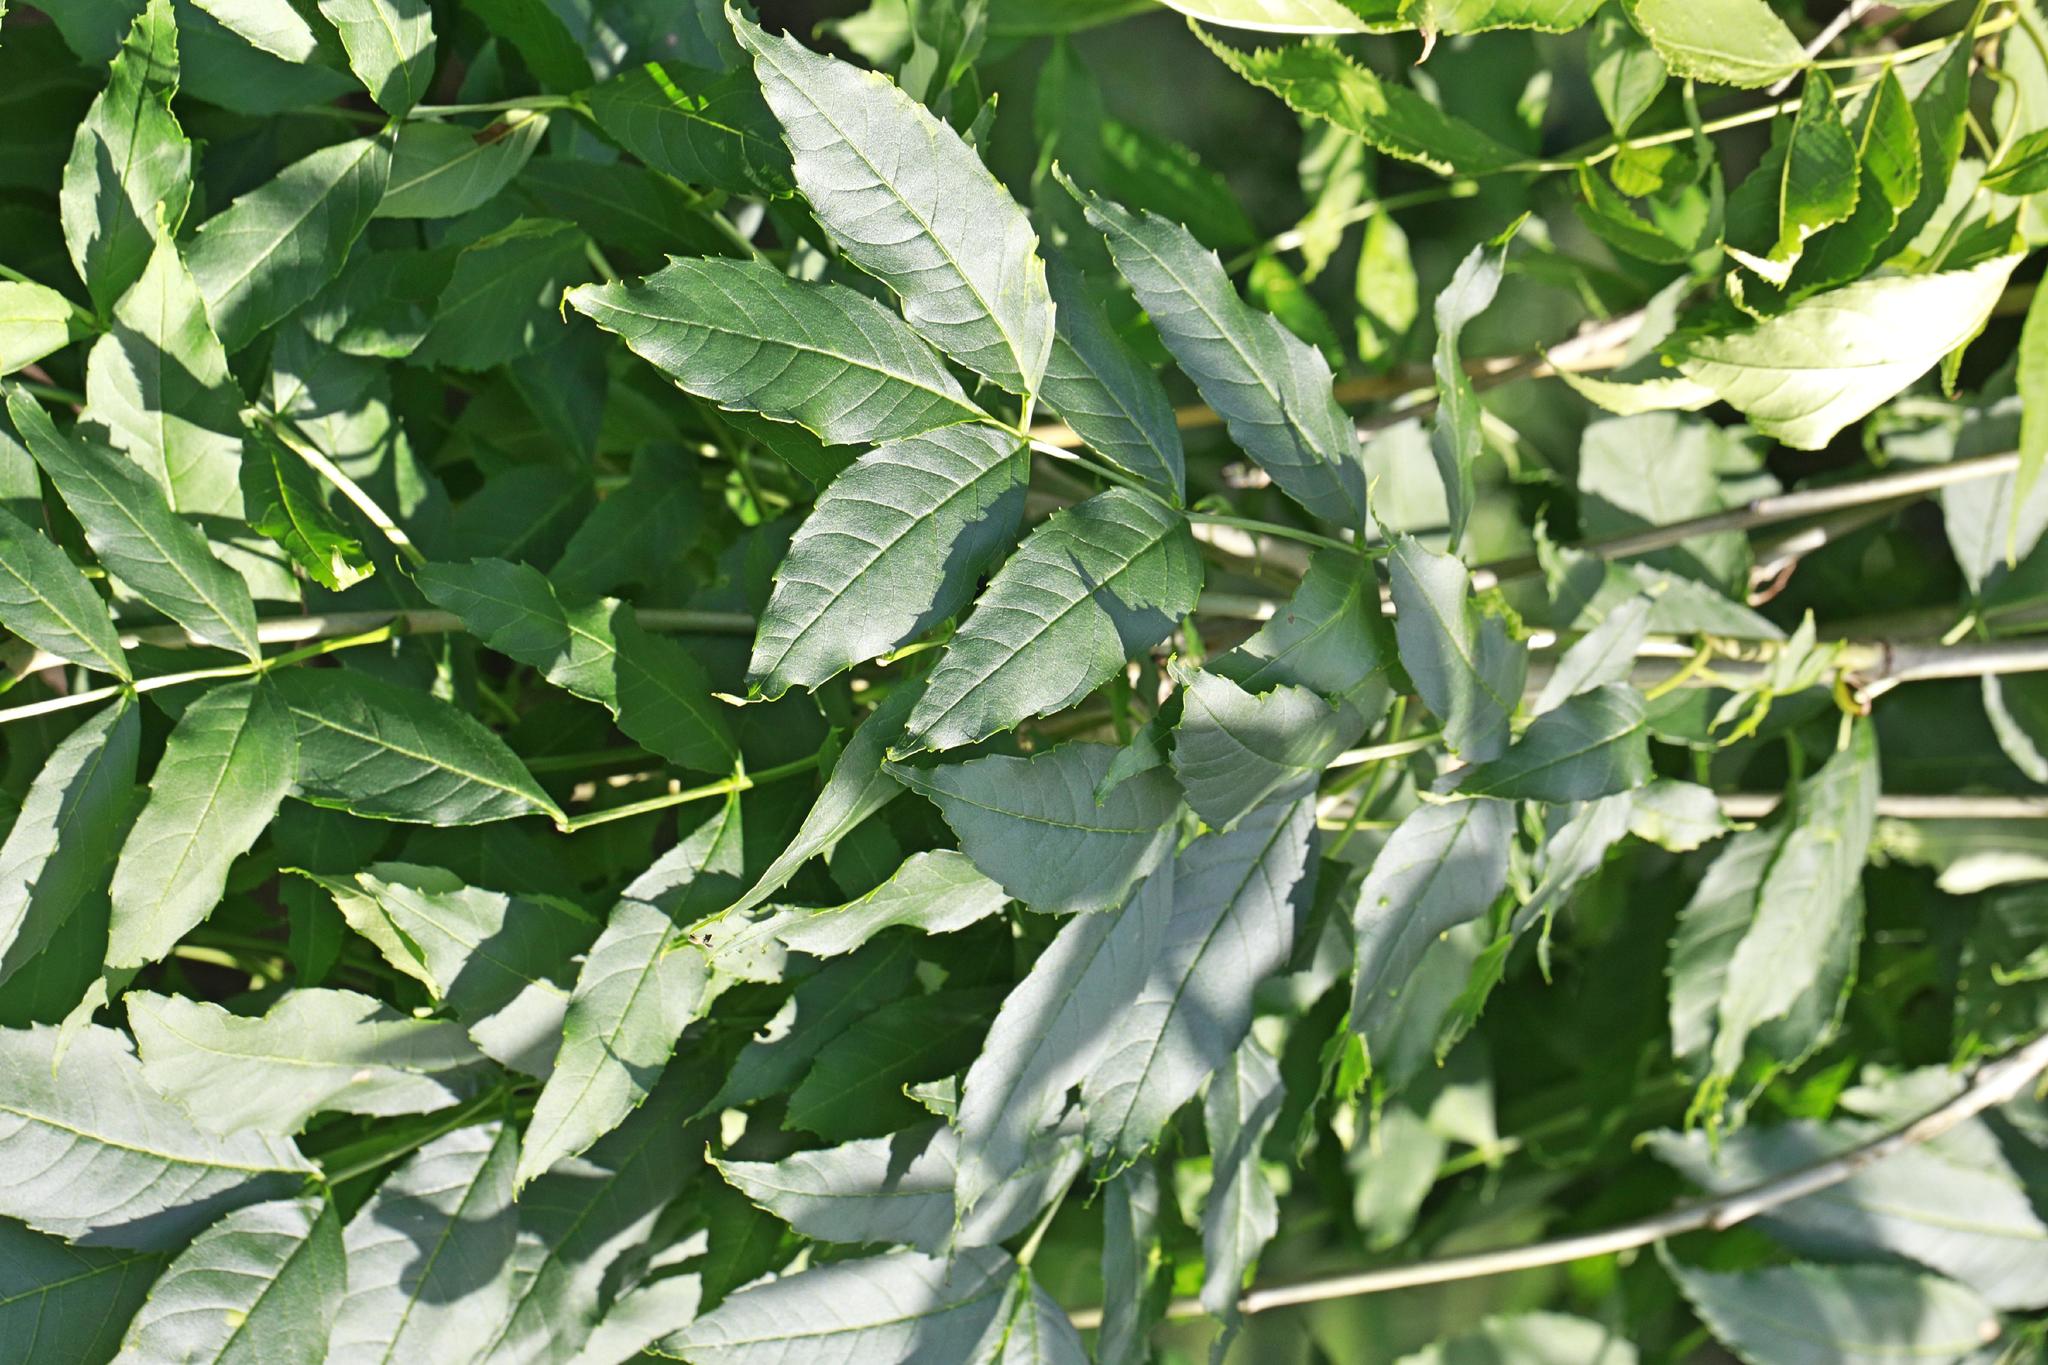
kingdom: Plantae
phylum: Tracheophyta
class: Magnoliopsida
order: Lamiales
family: Oleaceae
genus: Fraxinus
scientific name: Fraxinus excelsior
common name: European ash
